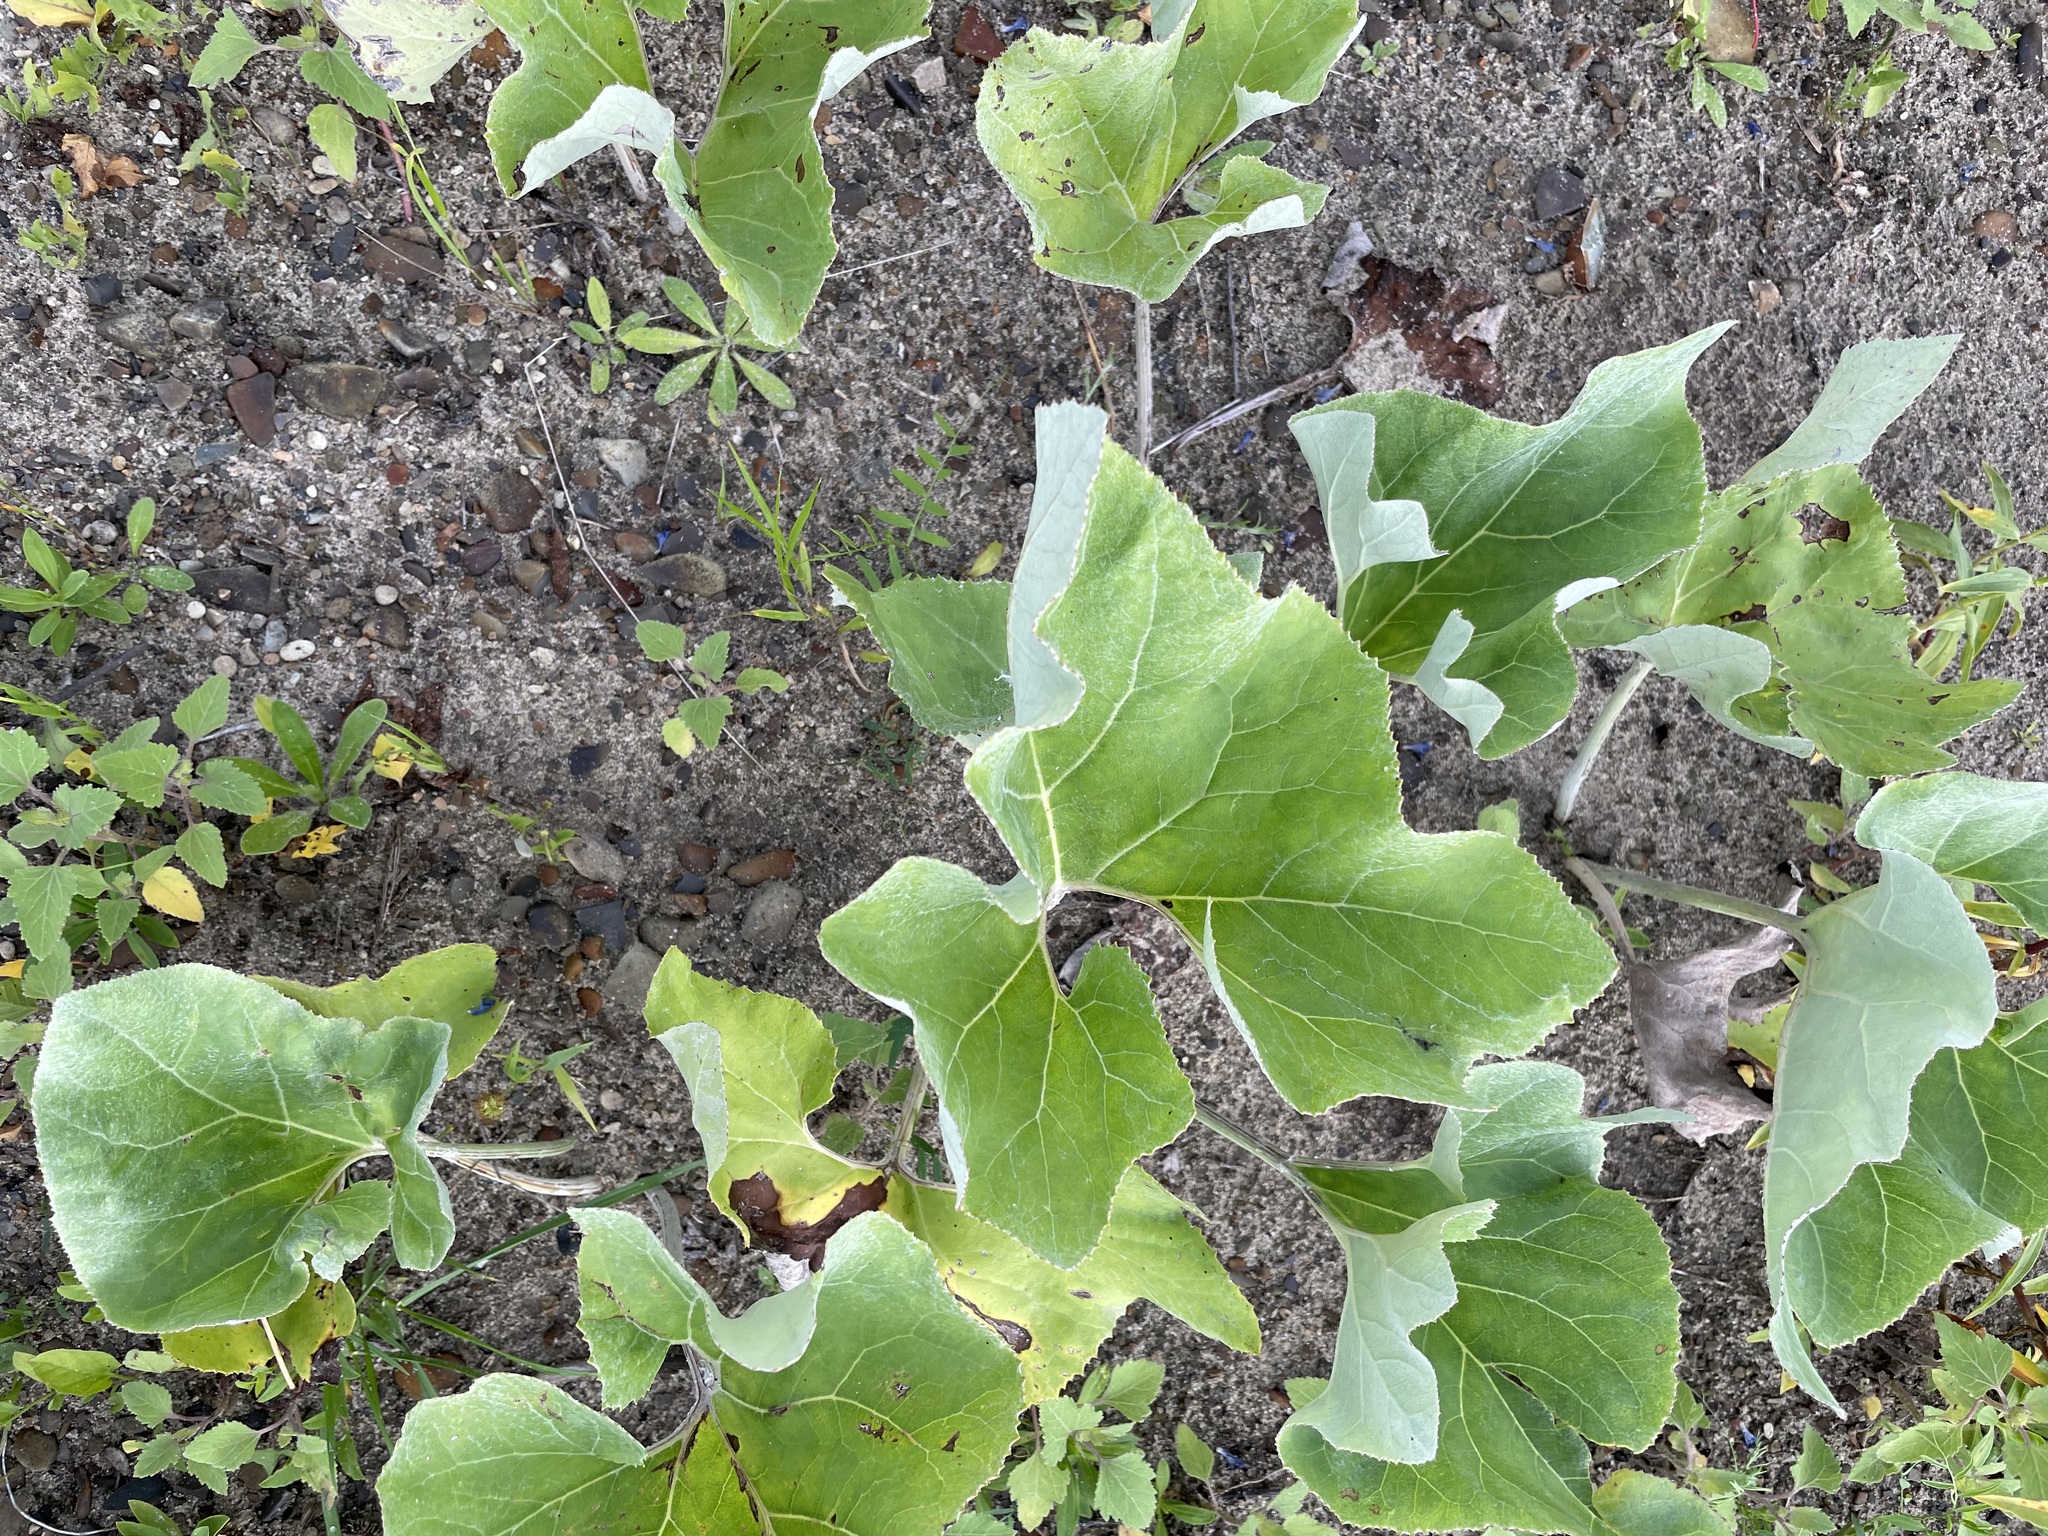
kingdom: Plantae
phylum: Tracheophyta
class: Magnoliopsida
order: Asterales
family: Asteraceae
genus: Petasites
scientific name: Petasites spurius
